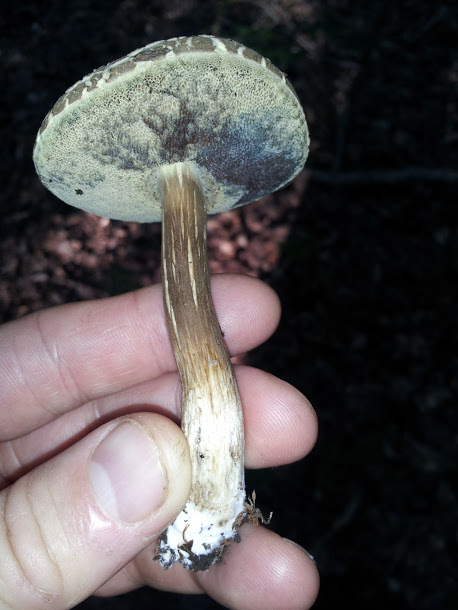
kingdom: Fungi
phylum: Basidiomycota
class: Agaricomycetes
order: Boletales
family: Boletaceae
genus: Porphyrellus
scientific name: Porphyrellus sordidus
